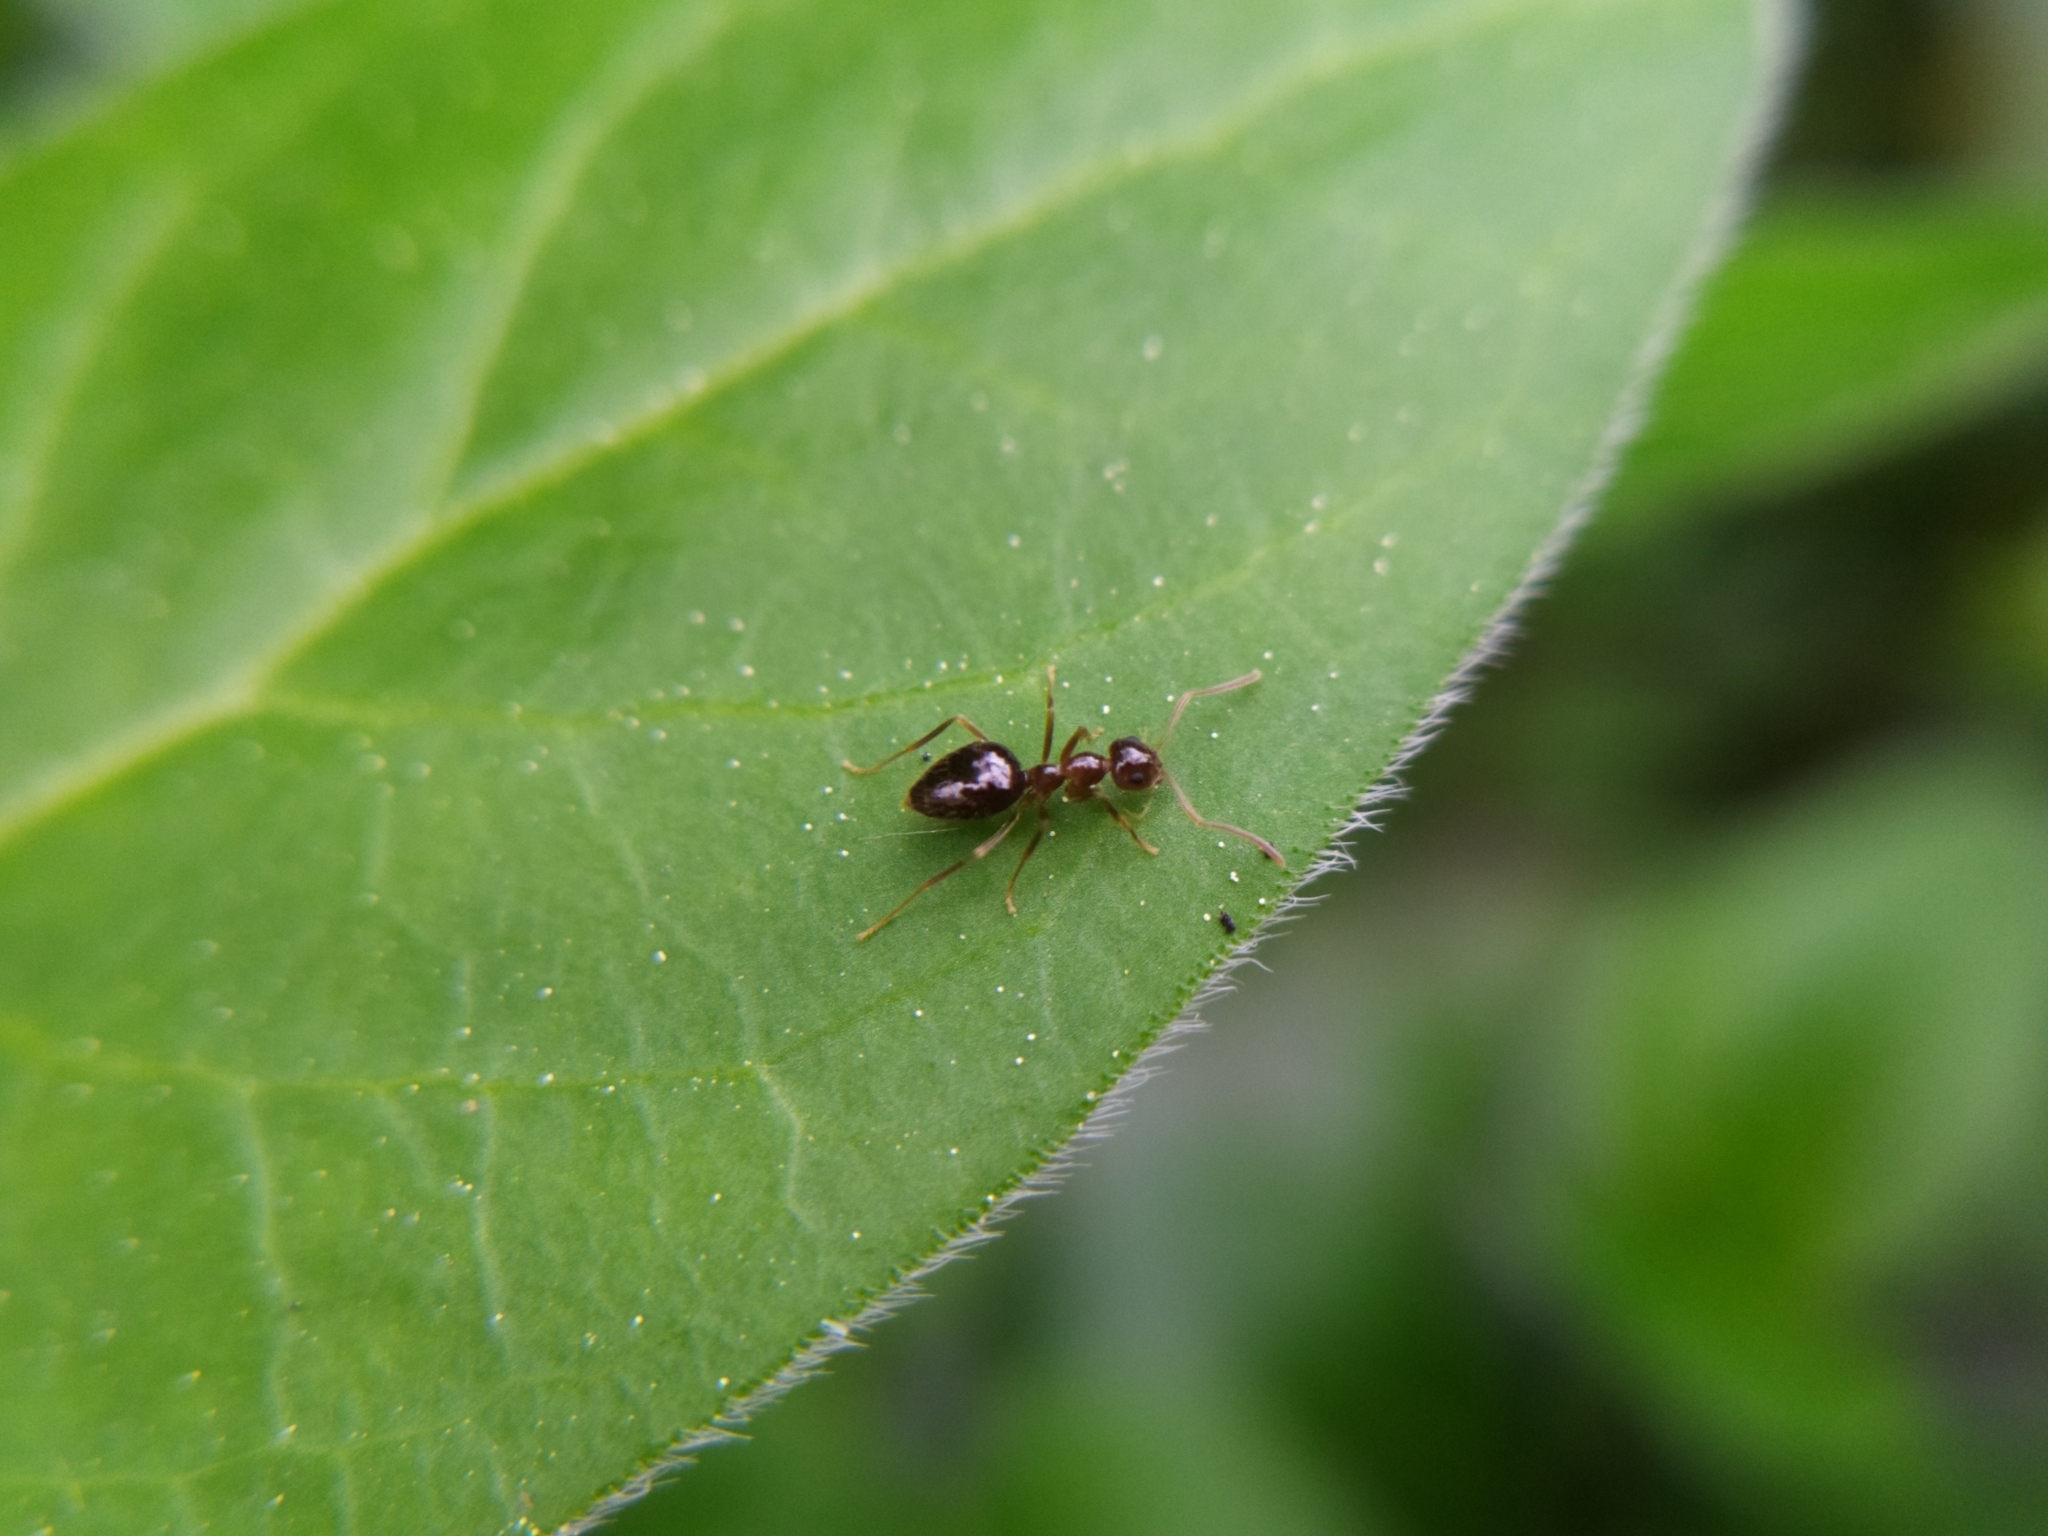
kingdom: Animalia
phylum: Arthropoda
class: Insecta
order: Hymenoptera
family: Formicidae
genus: Prenolepis
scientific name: Prenolepis nitens
